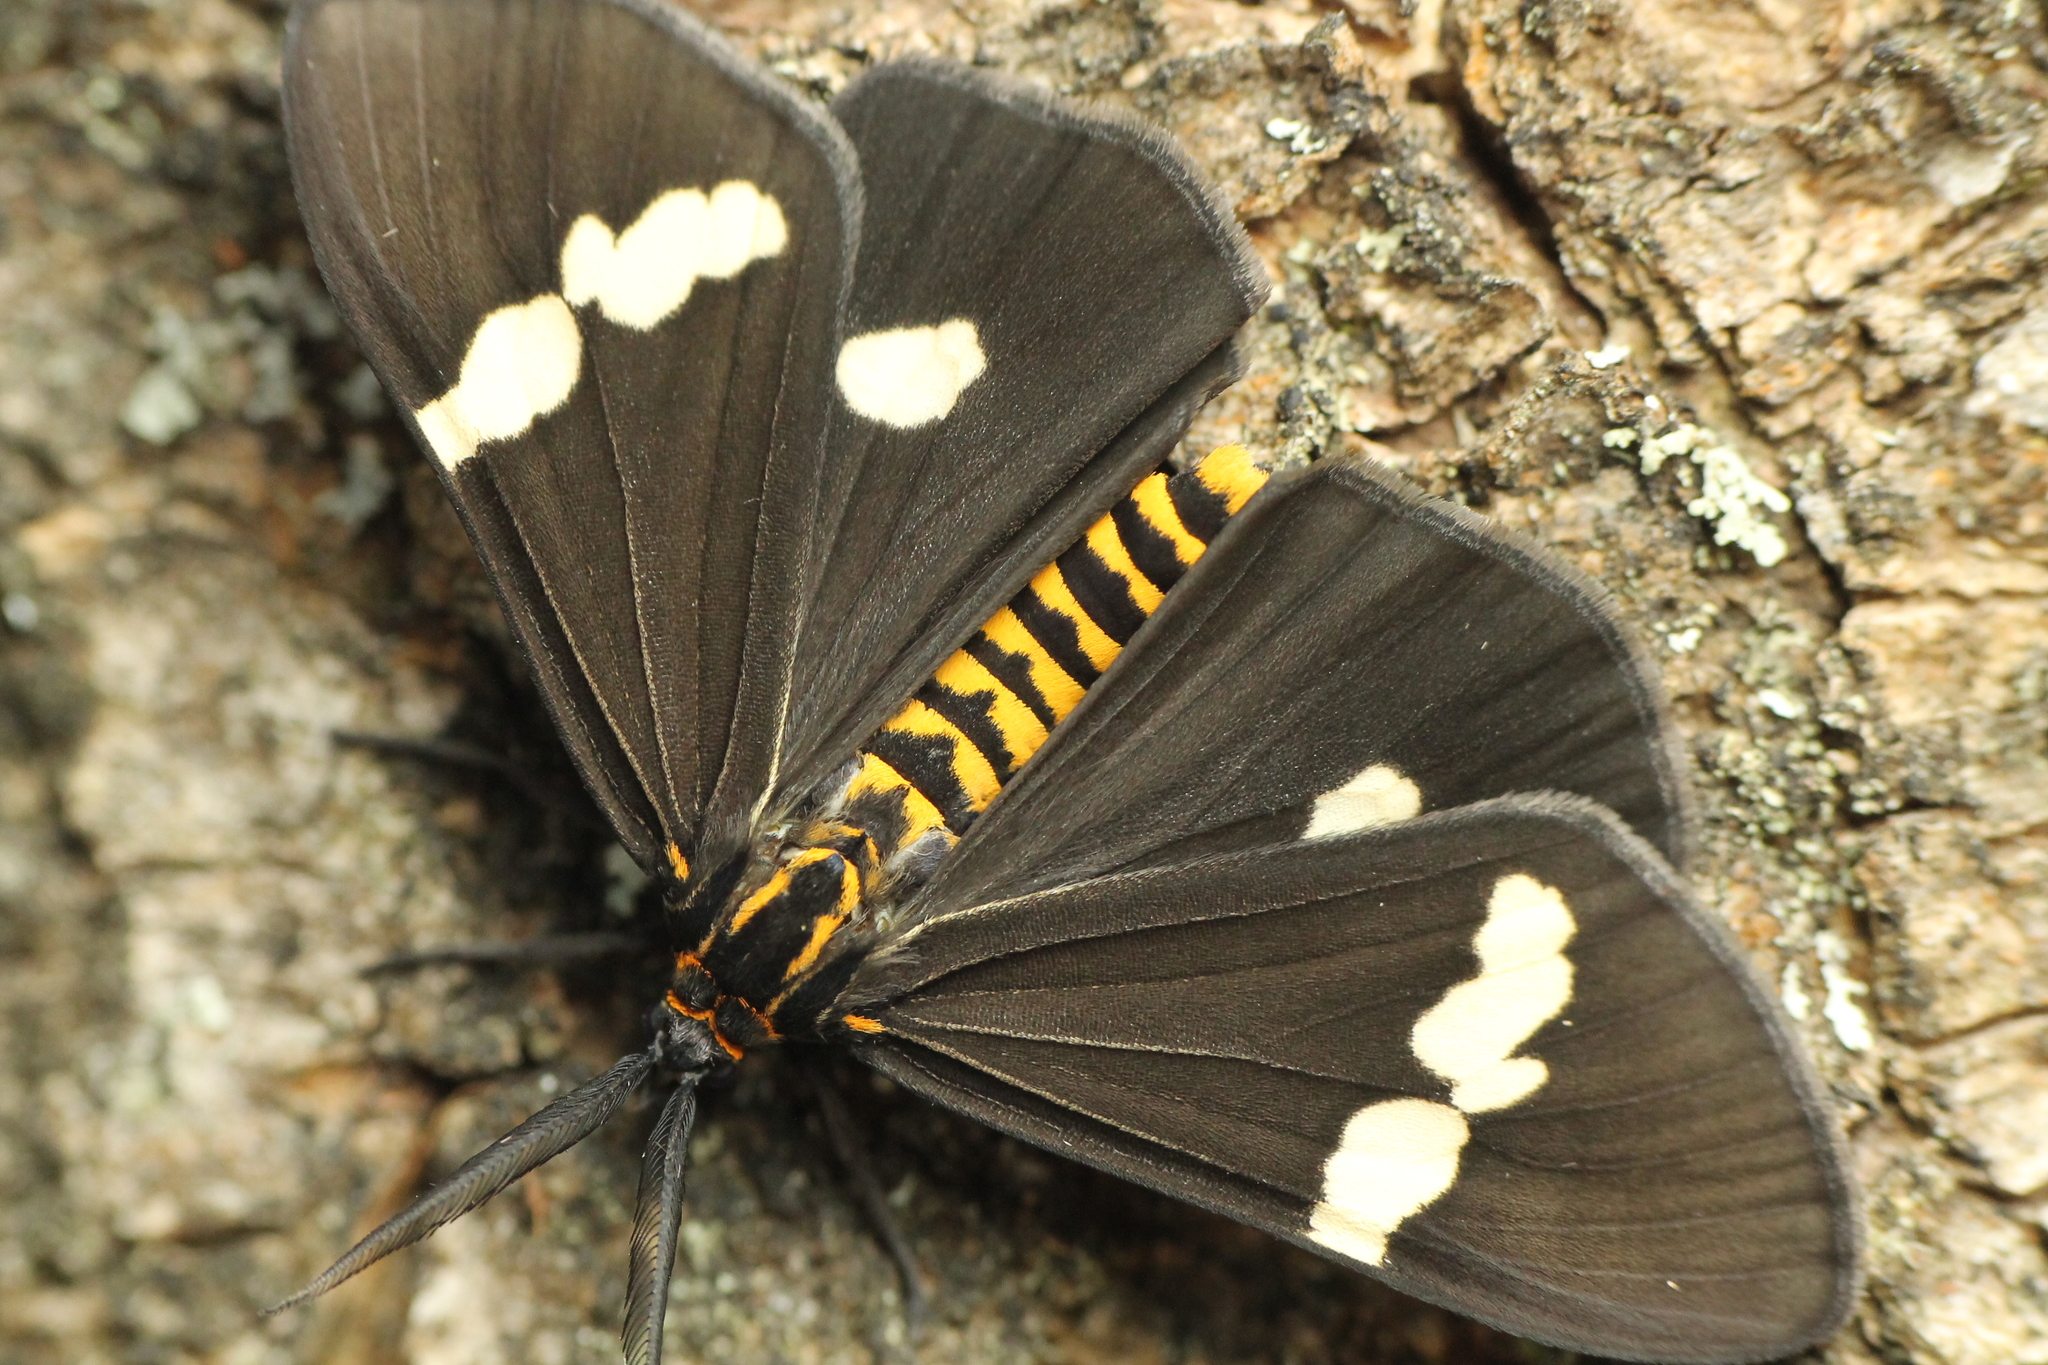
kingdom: Animalia
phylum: Arthropoda
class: Insecta
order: Lepidoptera
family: Erebidae
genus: Nyctemera
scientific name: Nyctemera
